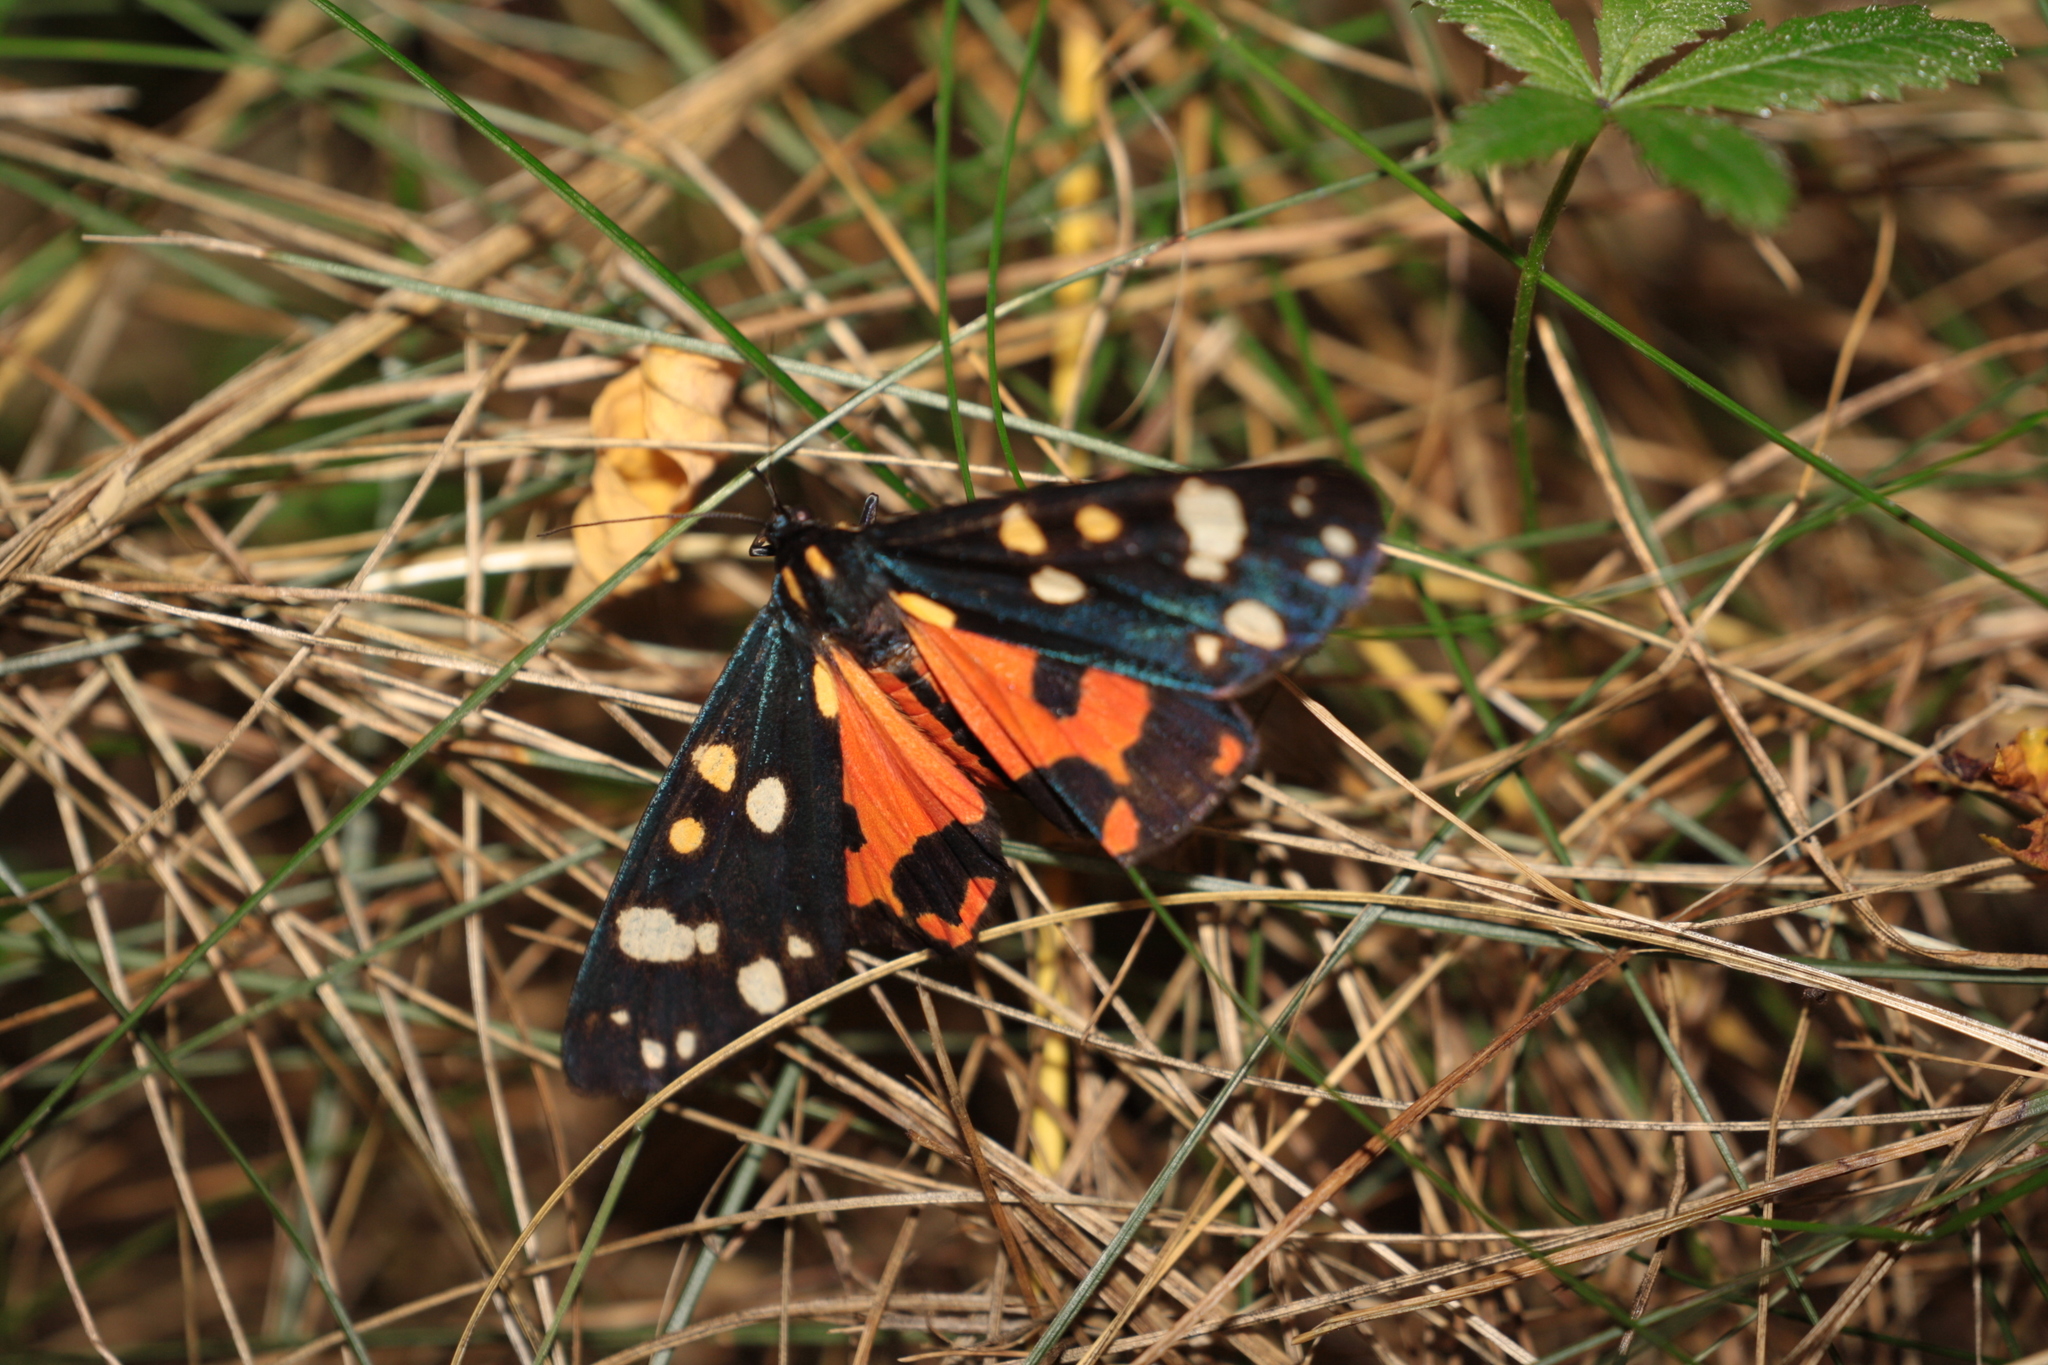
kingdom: Animalia
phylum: Arthropoda
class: Insecta
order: Lepidoptera
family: Erebidae
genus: Callimorpha
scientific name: Callimorpha dominula
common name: Scarlet tiger
